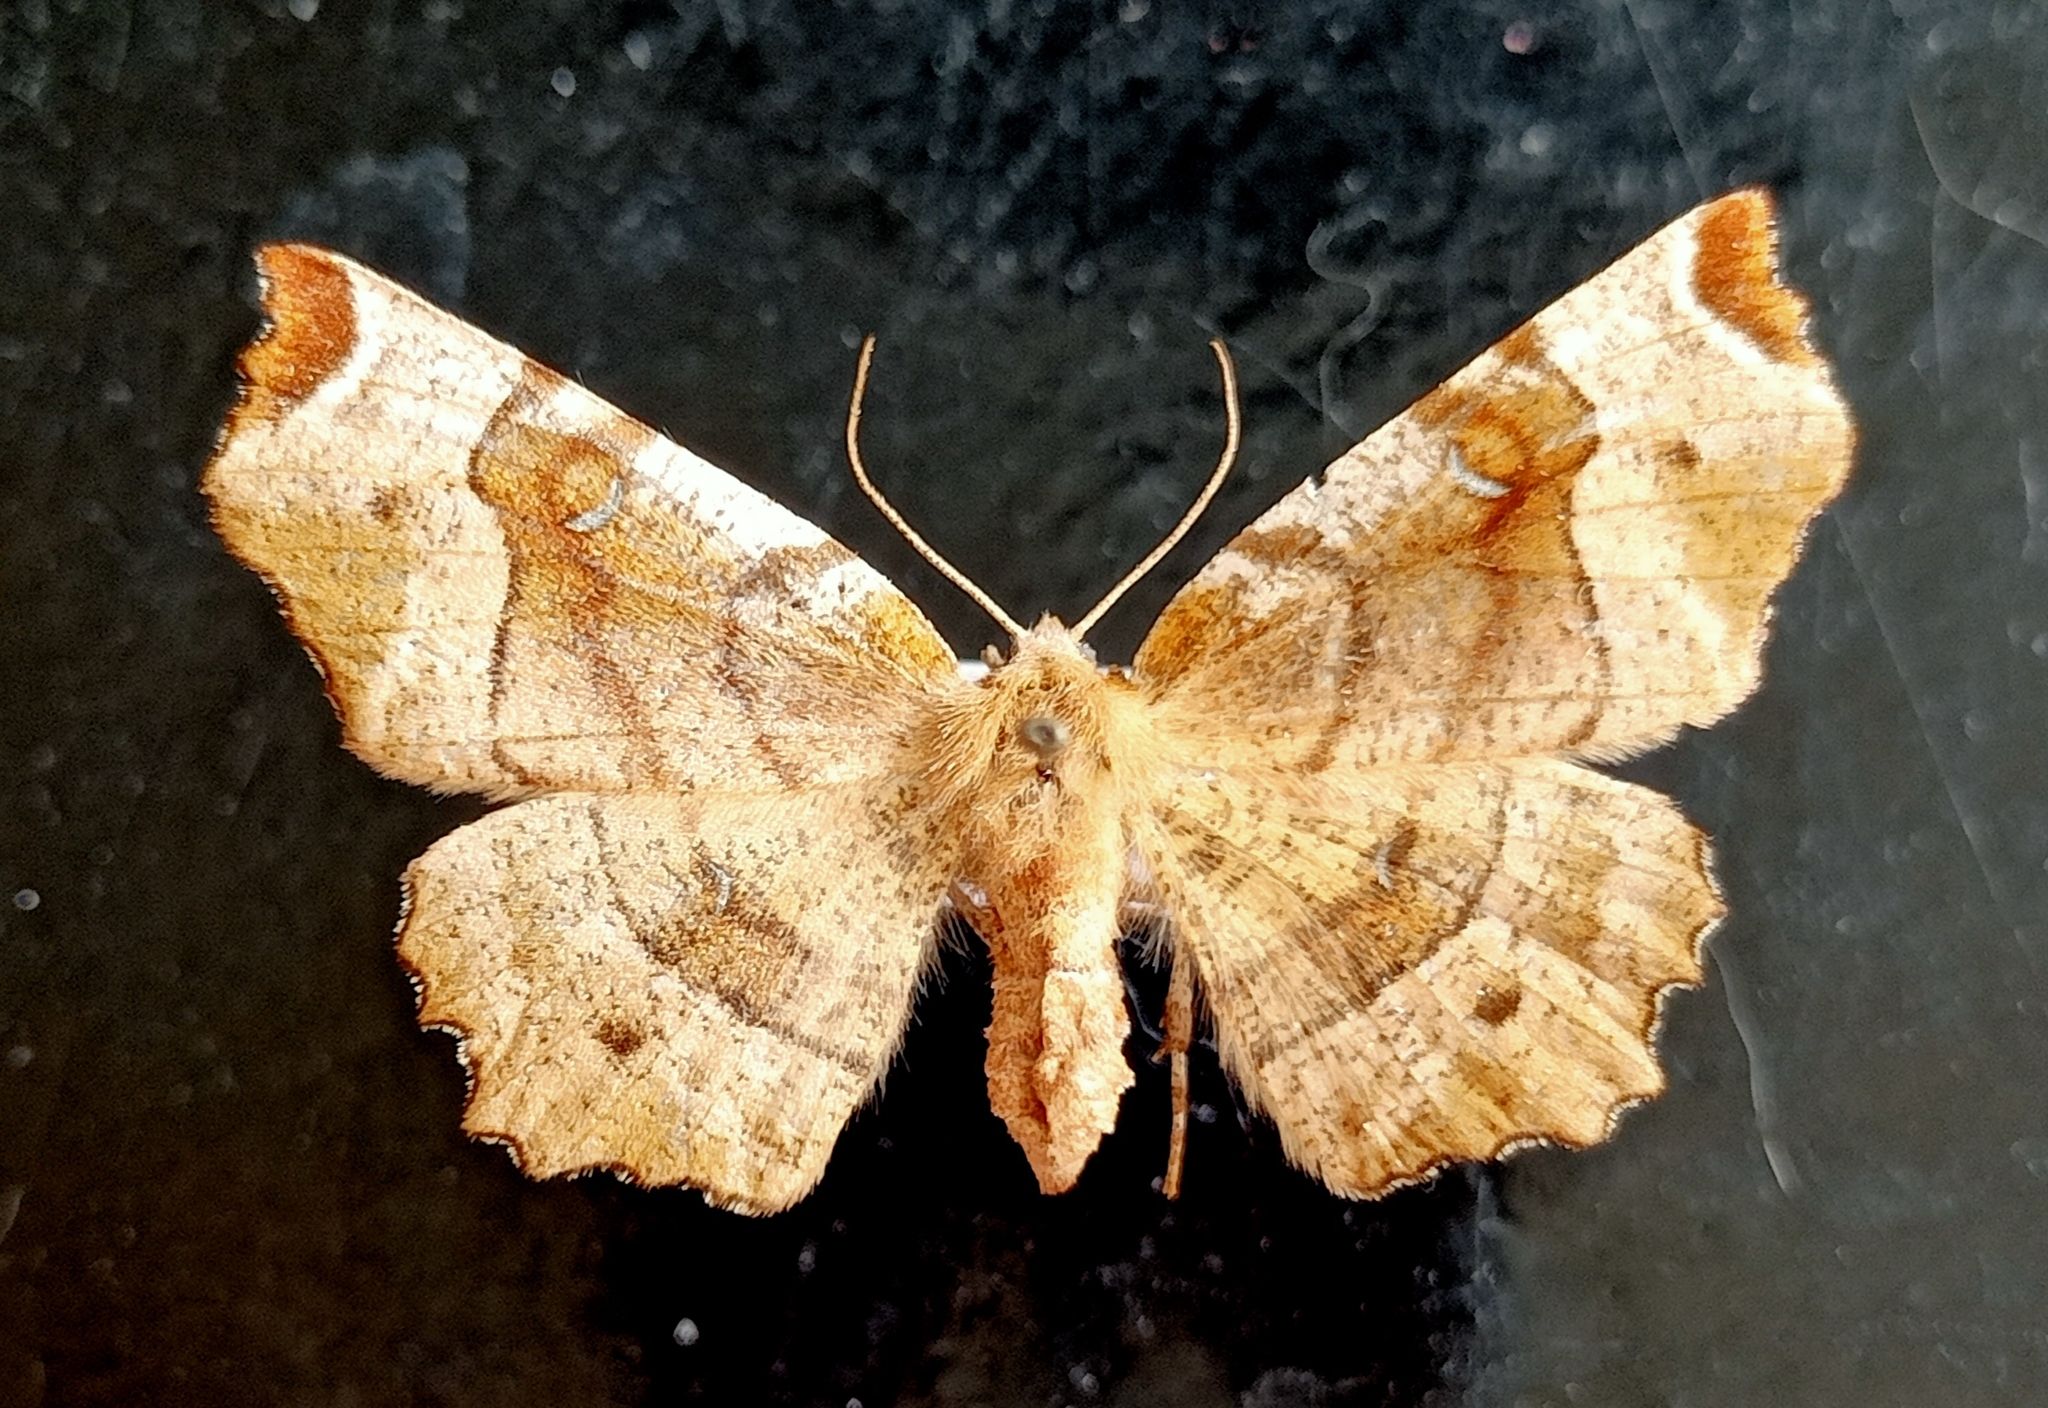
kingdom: Animalia
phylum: Arthropoda
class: Insecta
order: Lepidoptera
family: Geometridae
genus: Selenia
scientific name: Selenia tetralunaria
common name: Purple thorn
